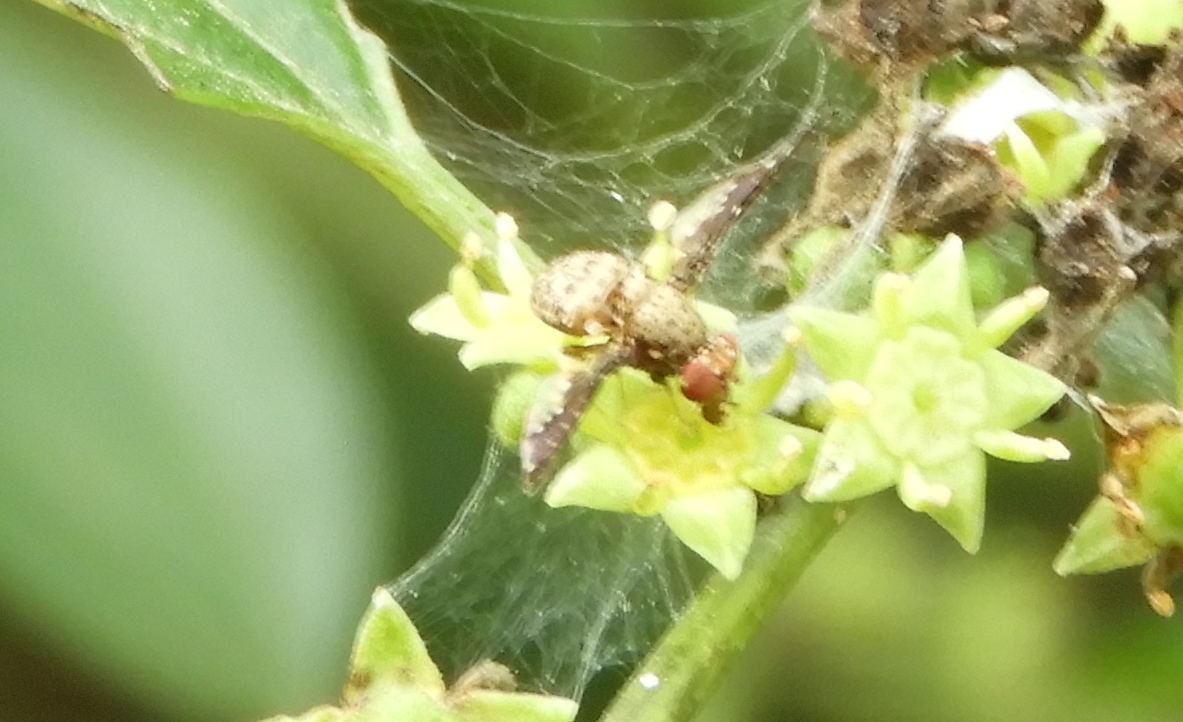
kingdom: Animalia
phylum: Arthropoda
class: Insecta
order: Diptera
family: Ulidiidae
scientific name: Ulidiidae
